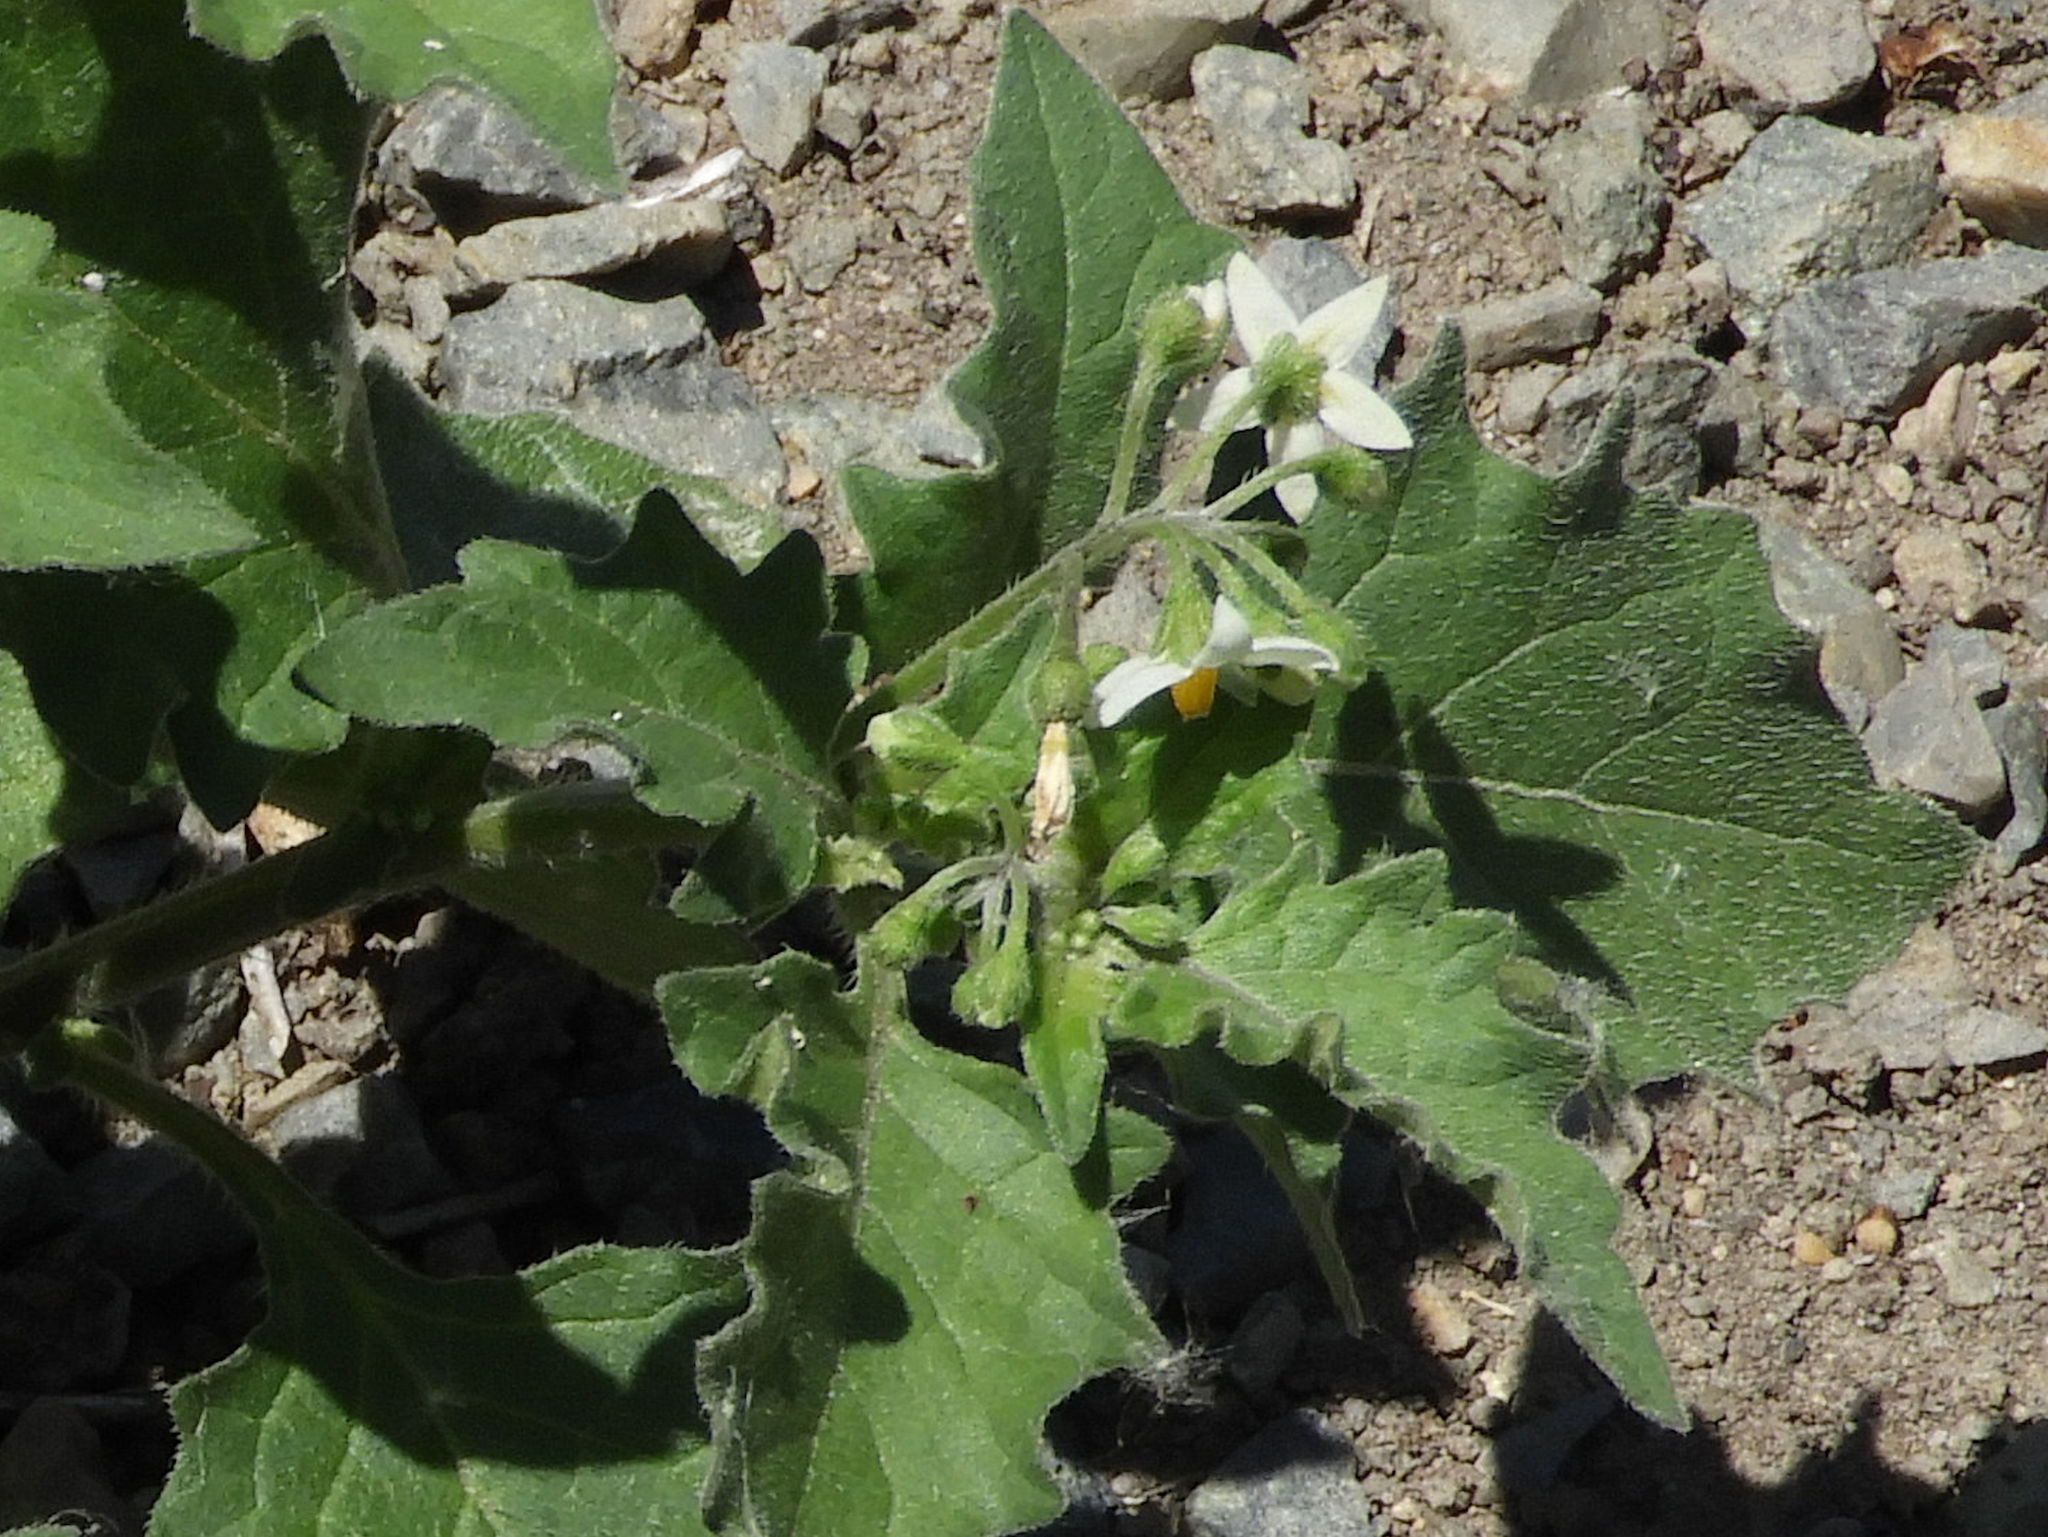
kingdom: Plantae
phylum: Tracheophyta
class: Magnoliopsida
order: Solanales
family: Solanaceae
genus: Solanum
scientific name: Solanum nigrum
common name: Black nightshade
